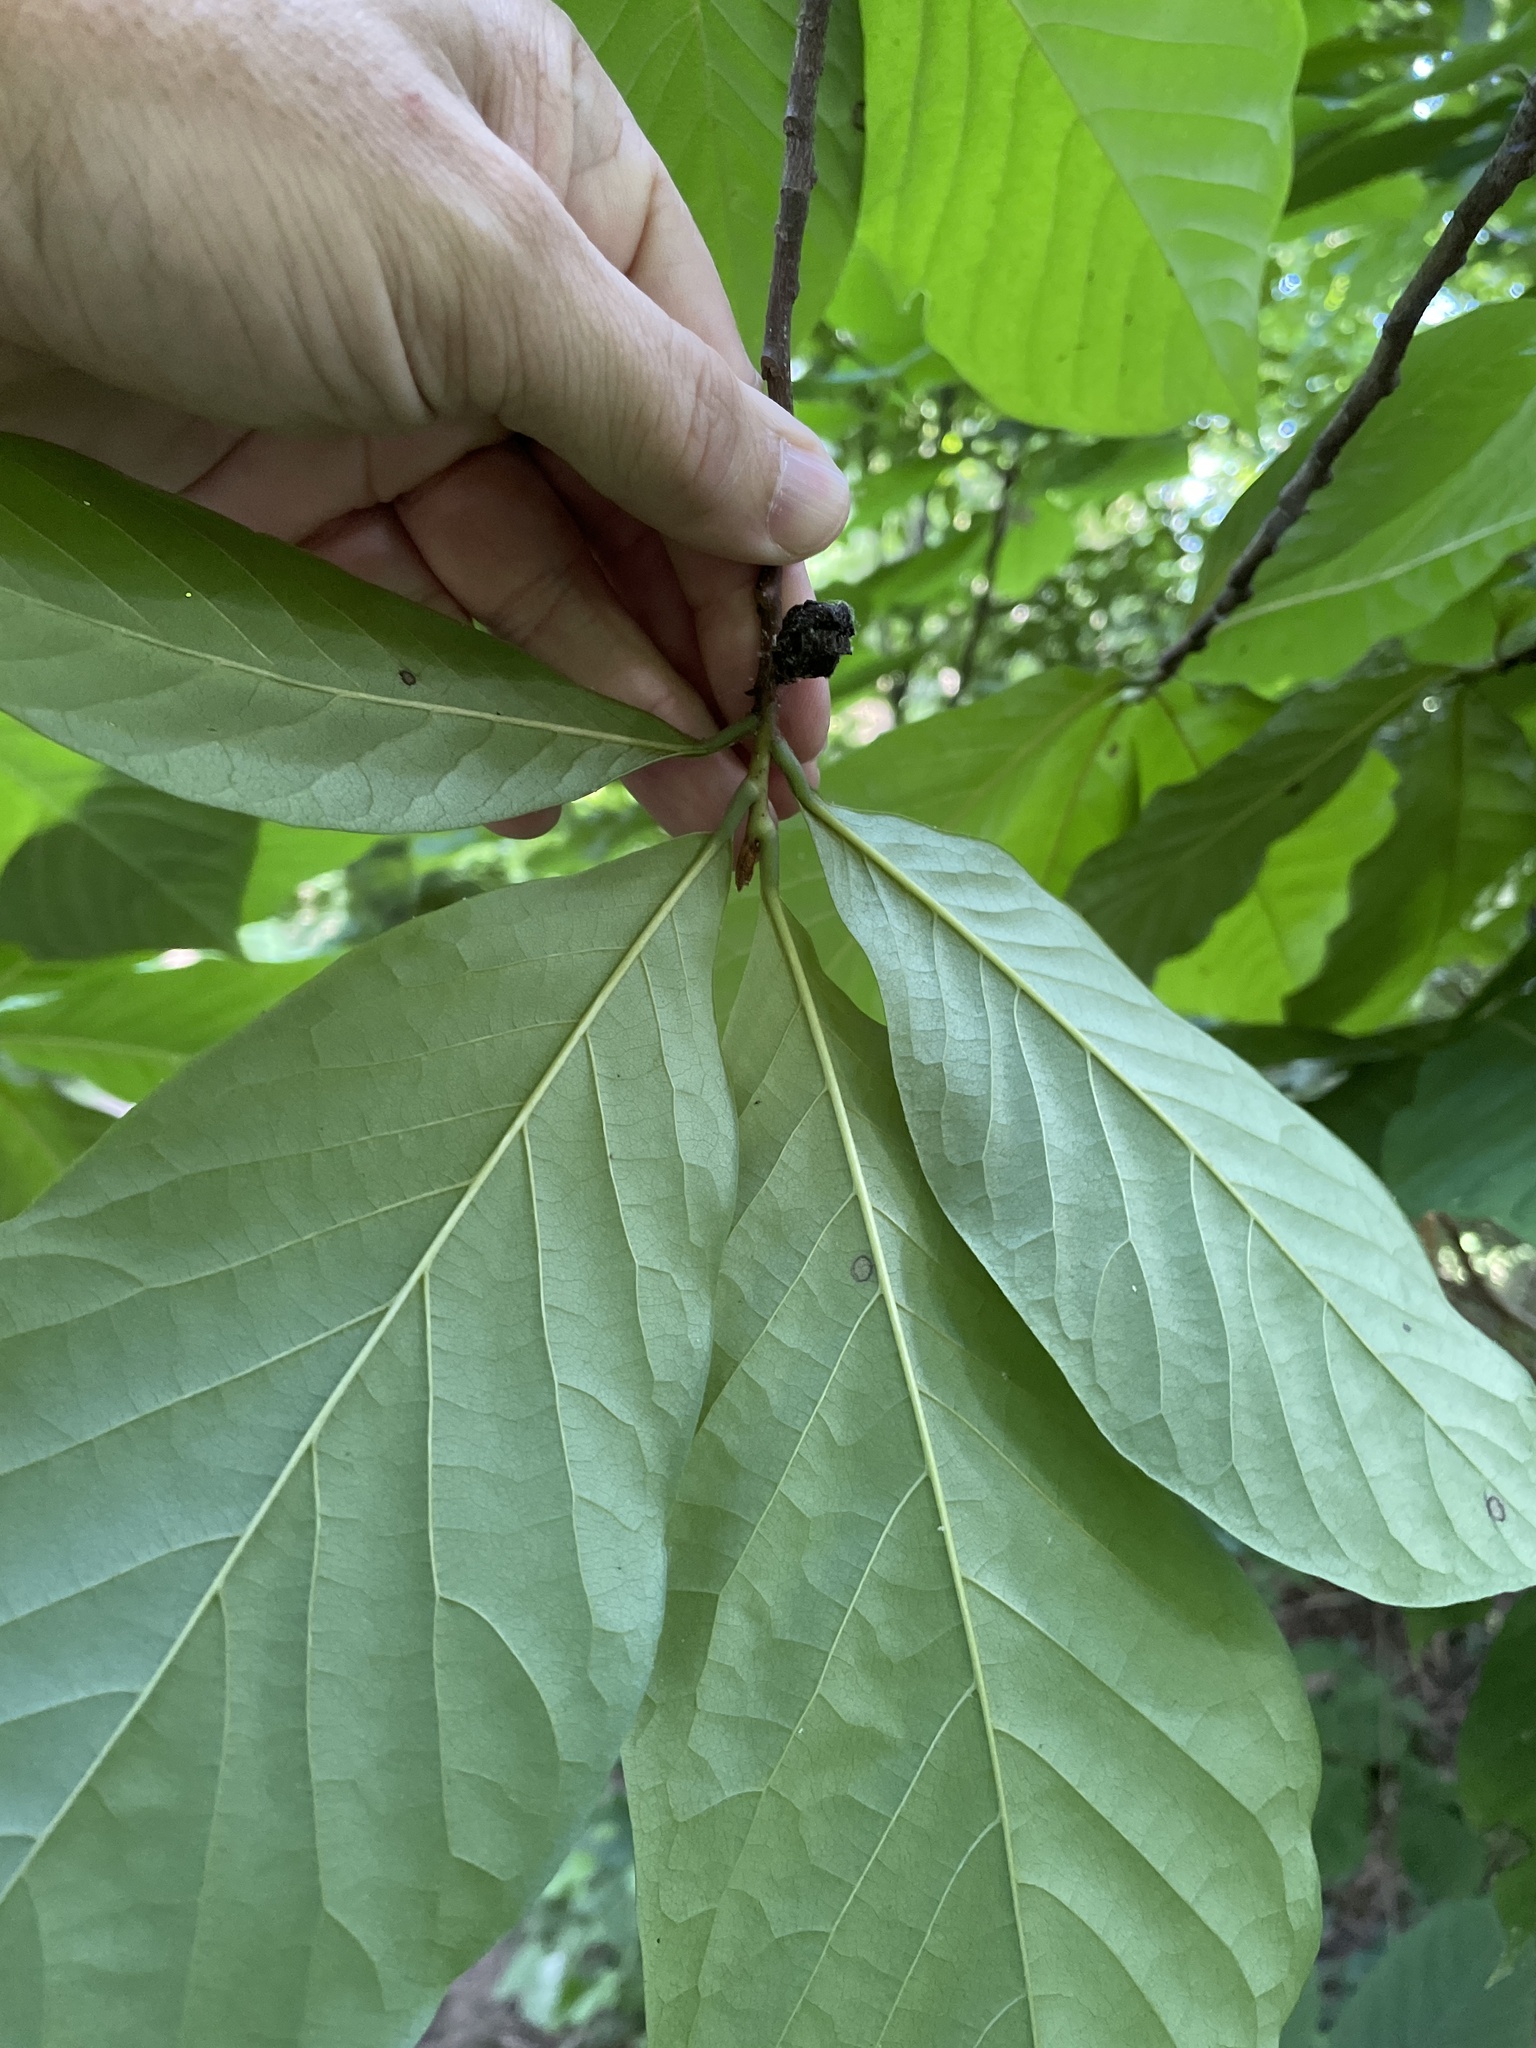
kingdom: Plantae
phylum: Tracheophyta
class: Magnoliopsida
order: Magnoliales
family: Annonaceae
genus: Asimina
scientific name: Asimina triloba
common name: Dog-banana
